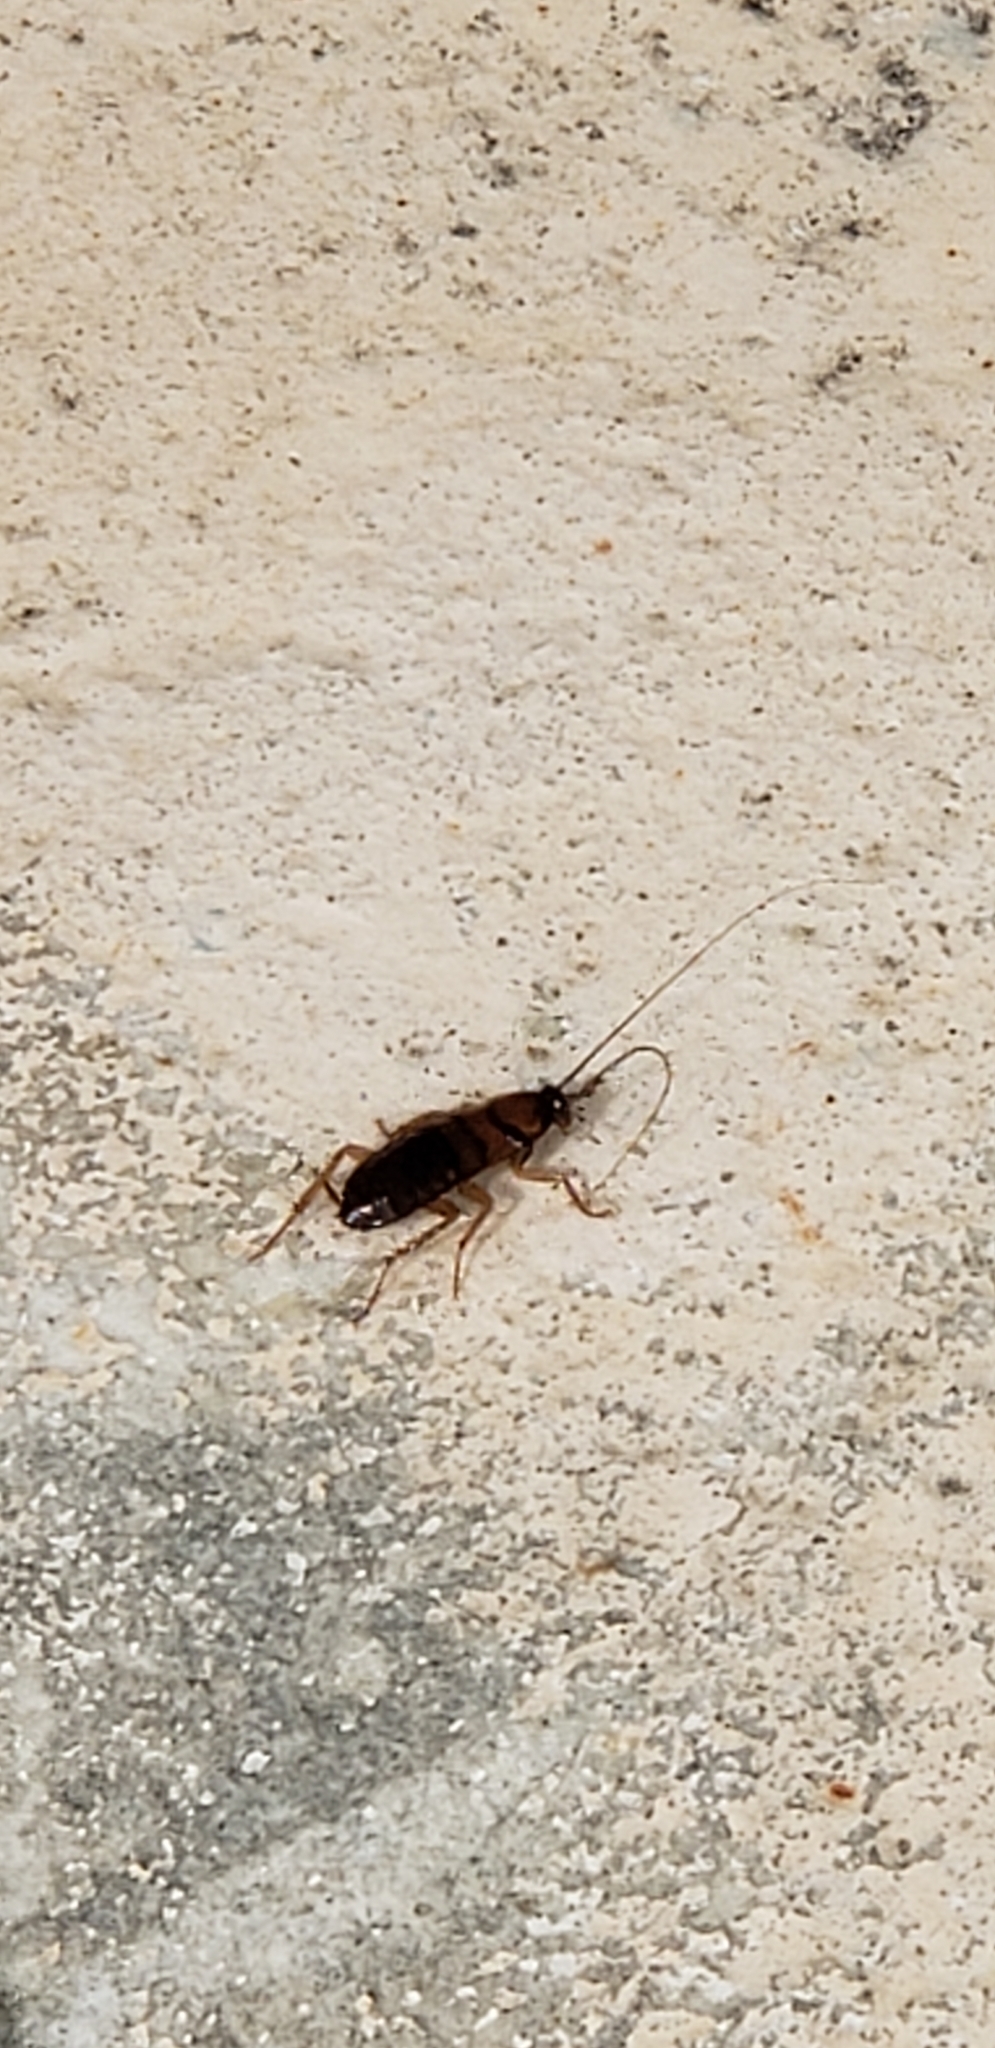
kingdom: Animalia
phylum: Arthropoda
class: Insecta
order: Blattodea
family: Blattidae
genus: Periplaneta
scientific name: Periplaneta americana
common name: American cockroach
